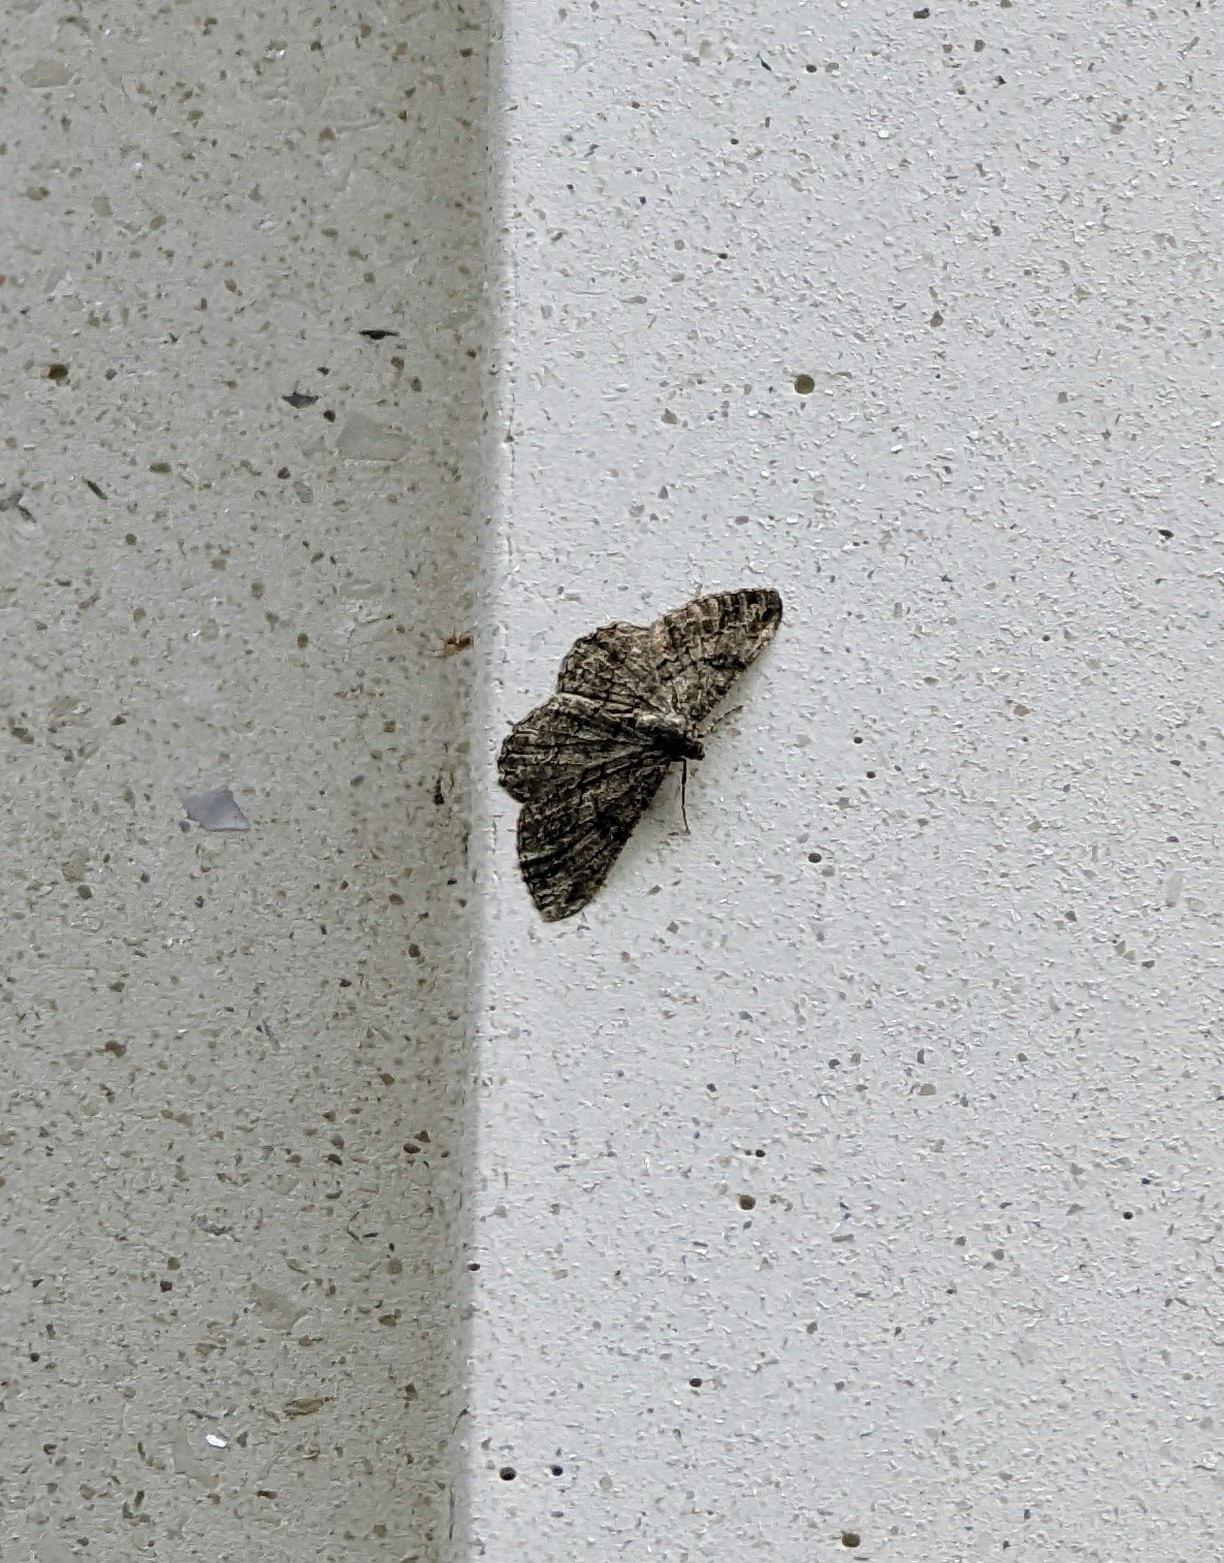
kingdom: Animalia
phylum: Arthropoda
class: Insecta
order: Lepidoptera
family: Geometridae
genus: Peribatodes
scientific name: Peribatodes rhomboidaria
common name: Willow beauty
